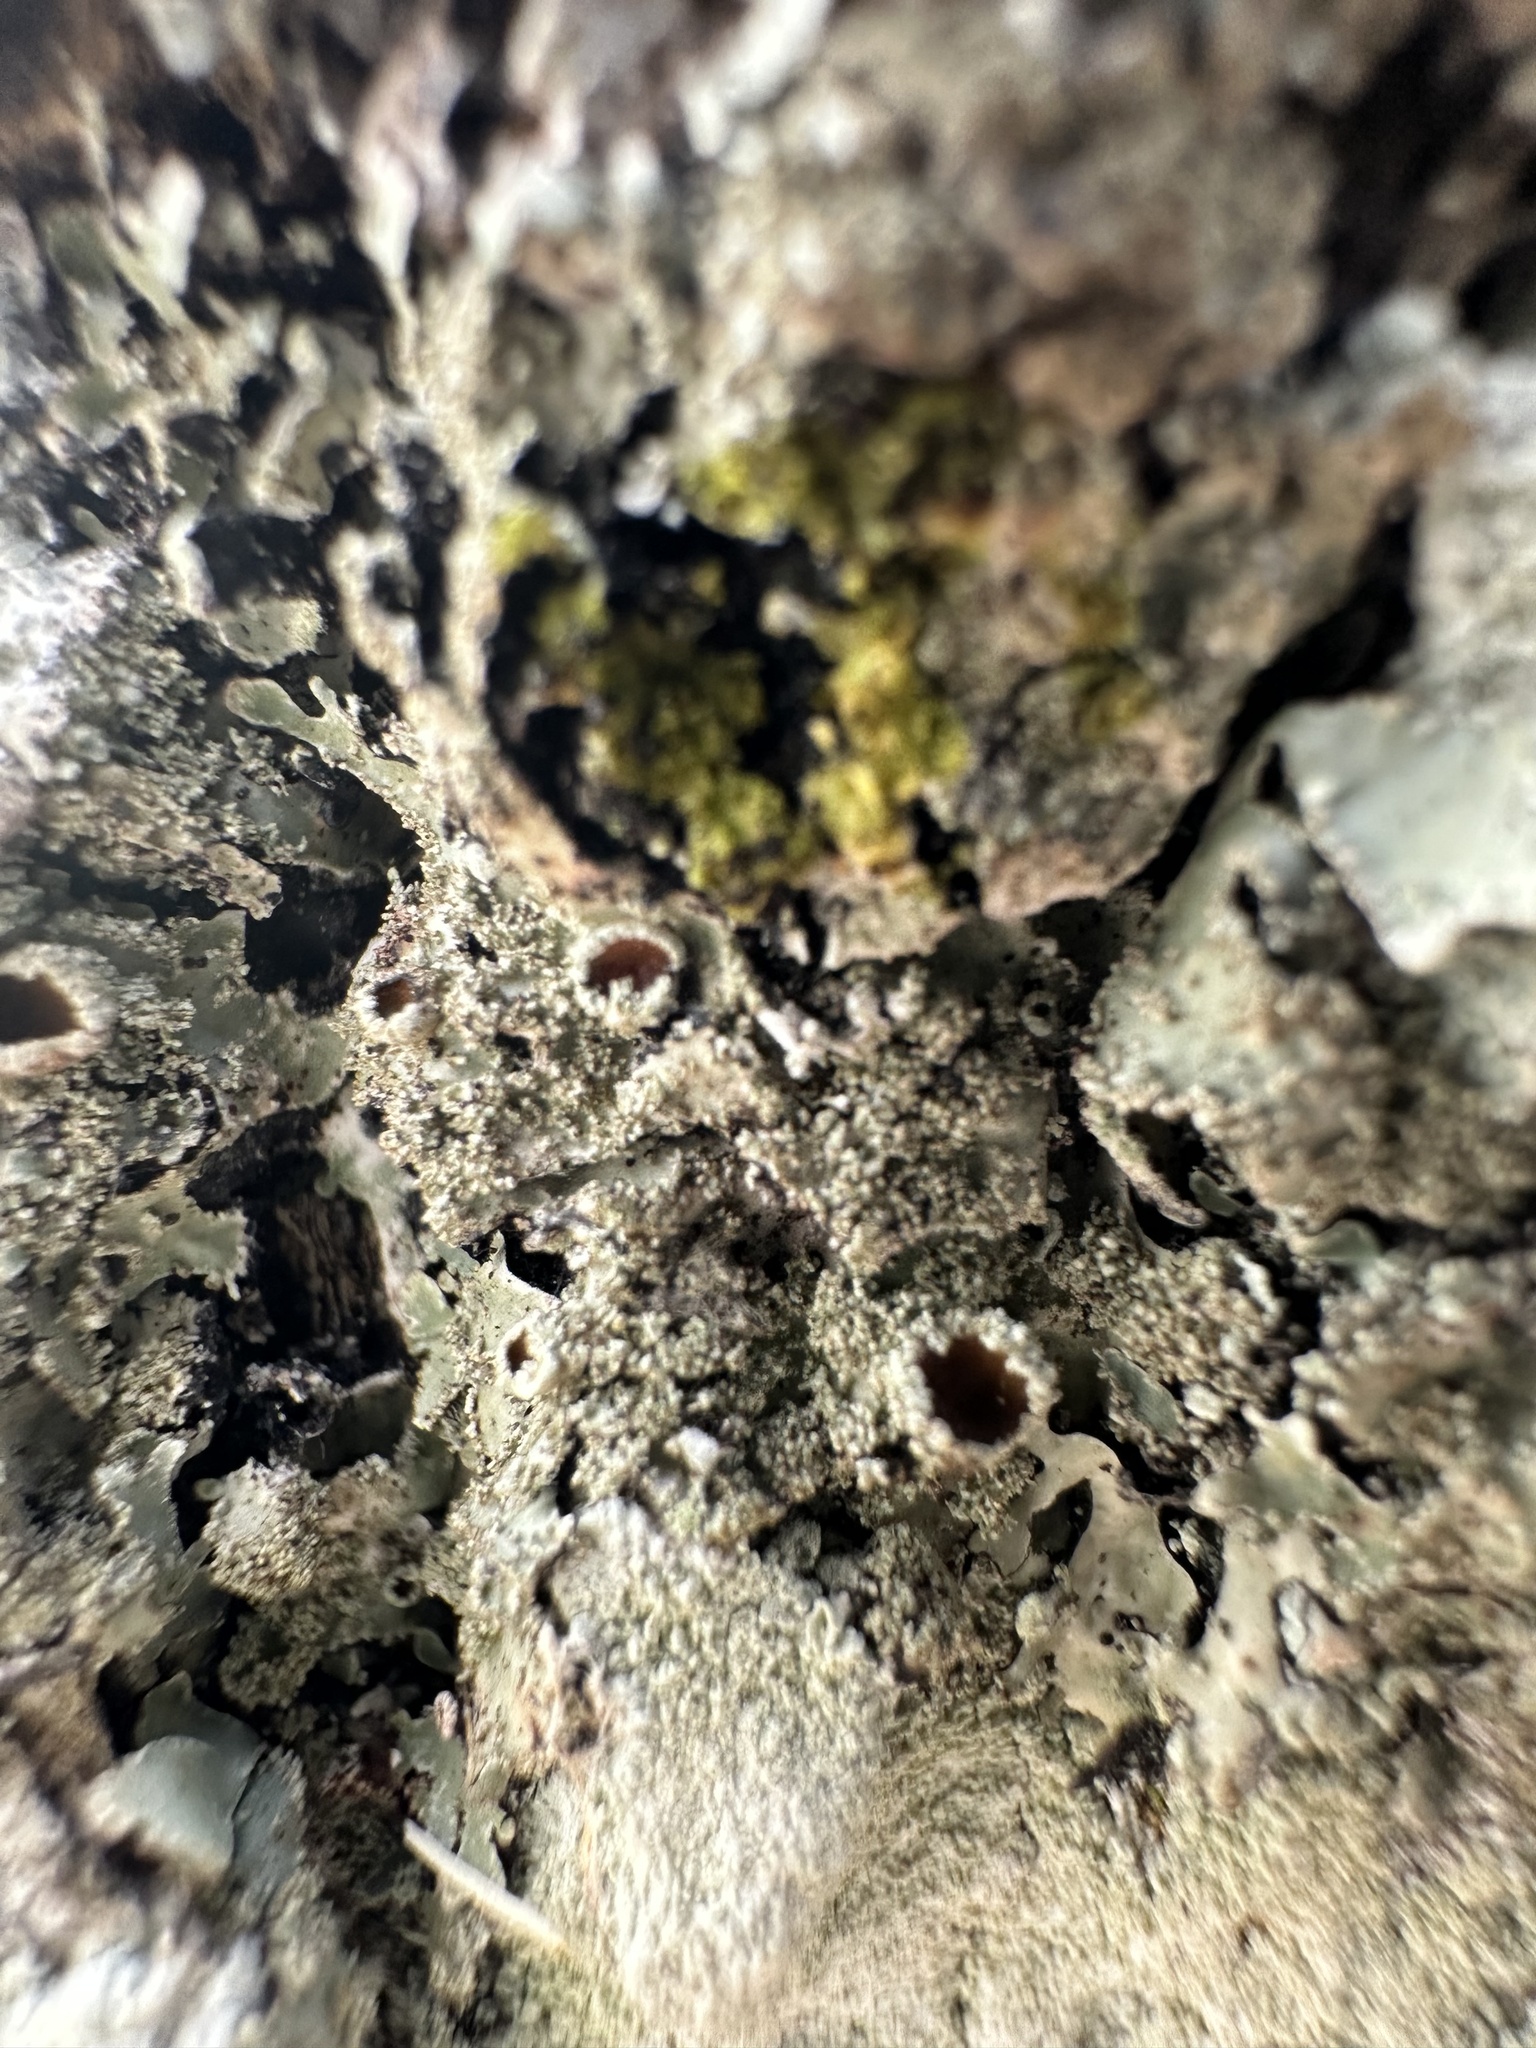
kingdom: Fungi
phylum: Ascomycota
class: Lecanoromycetes
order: Lecanorales
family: Parmeliaceae
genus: Parmelia
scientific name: Parmelia squarrosa
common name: Bottle brush shield lichen
